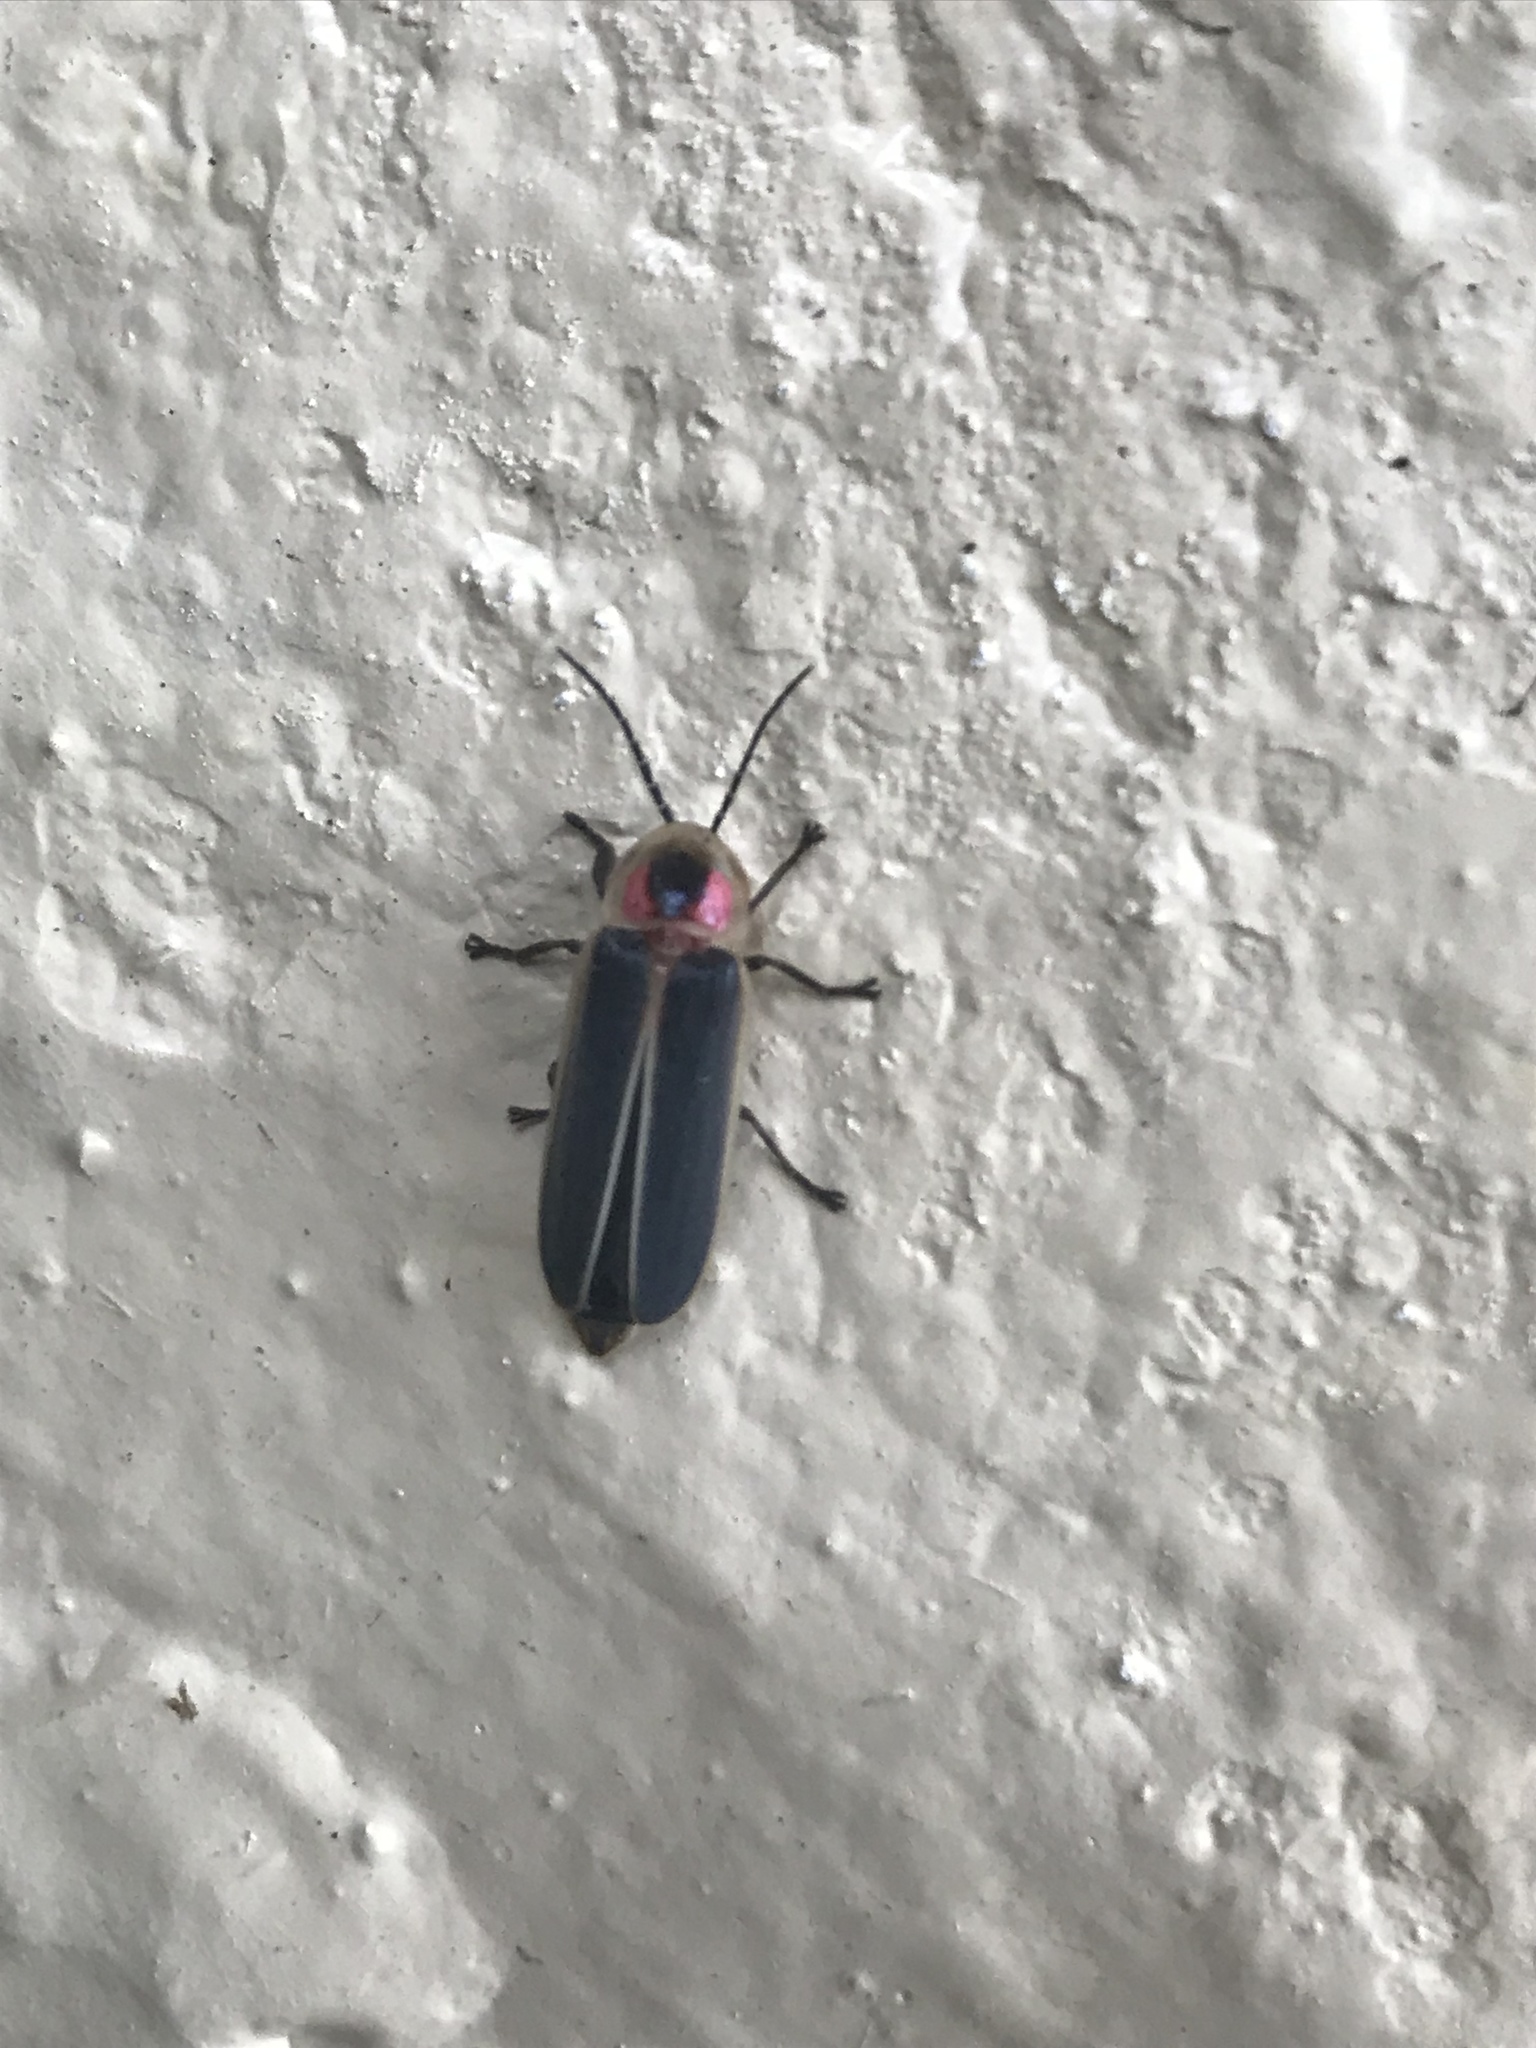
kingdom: Animalia
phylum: Arthropoda
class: Insecta
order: Coleoptera
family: Lampyridae
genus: Photinus
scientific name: Photinus pyralis
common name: Big dipper firefly
